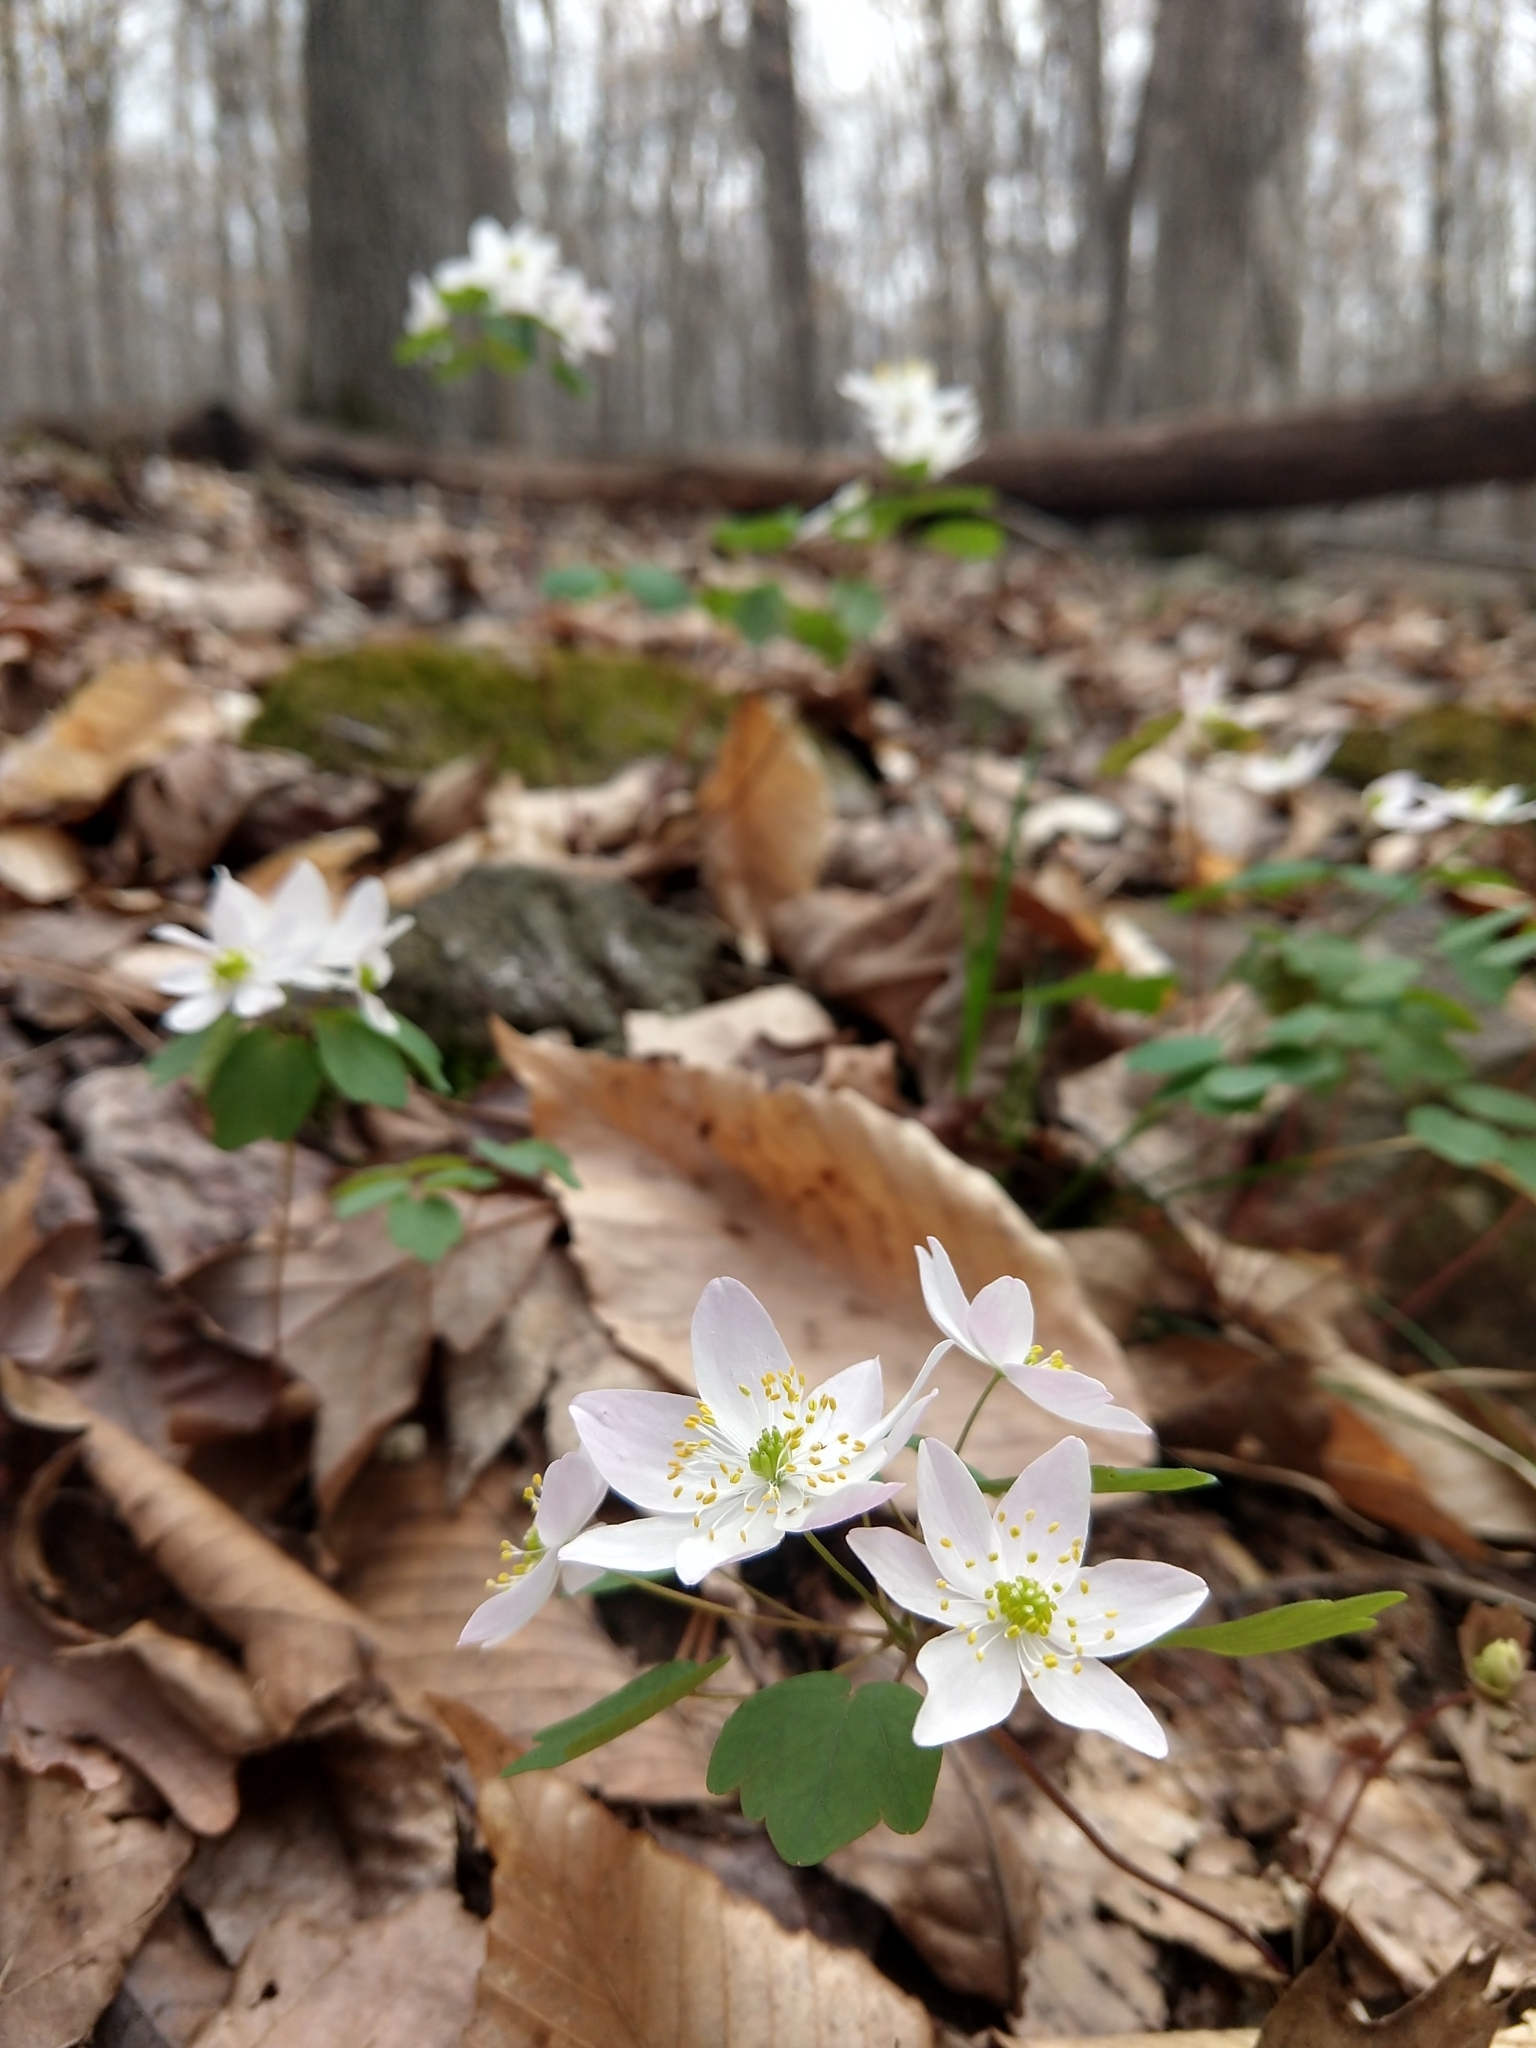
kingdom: Plantae
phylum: Tracheophyta
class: Magnoliopsida
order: Ranunculales
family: Ranunculaceae
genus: Thalictrum
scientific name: Thalictrum thalictroides
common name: Rue-anemone
